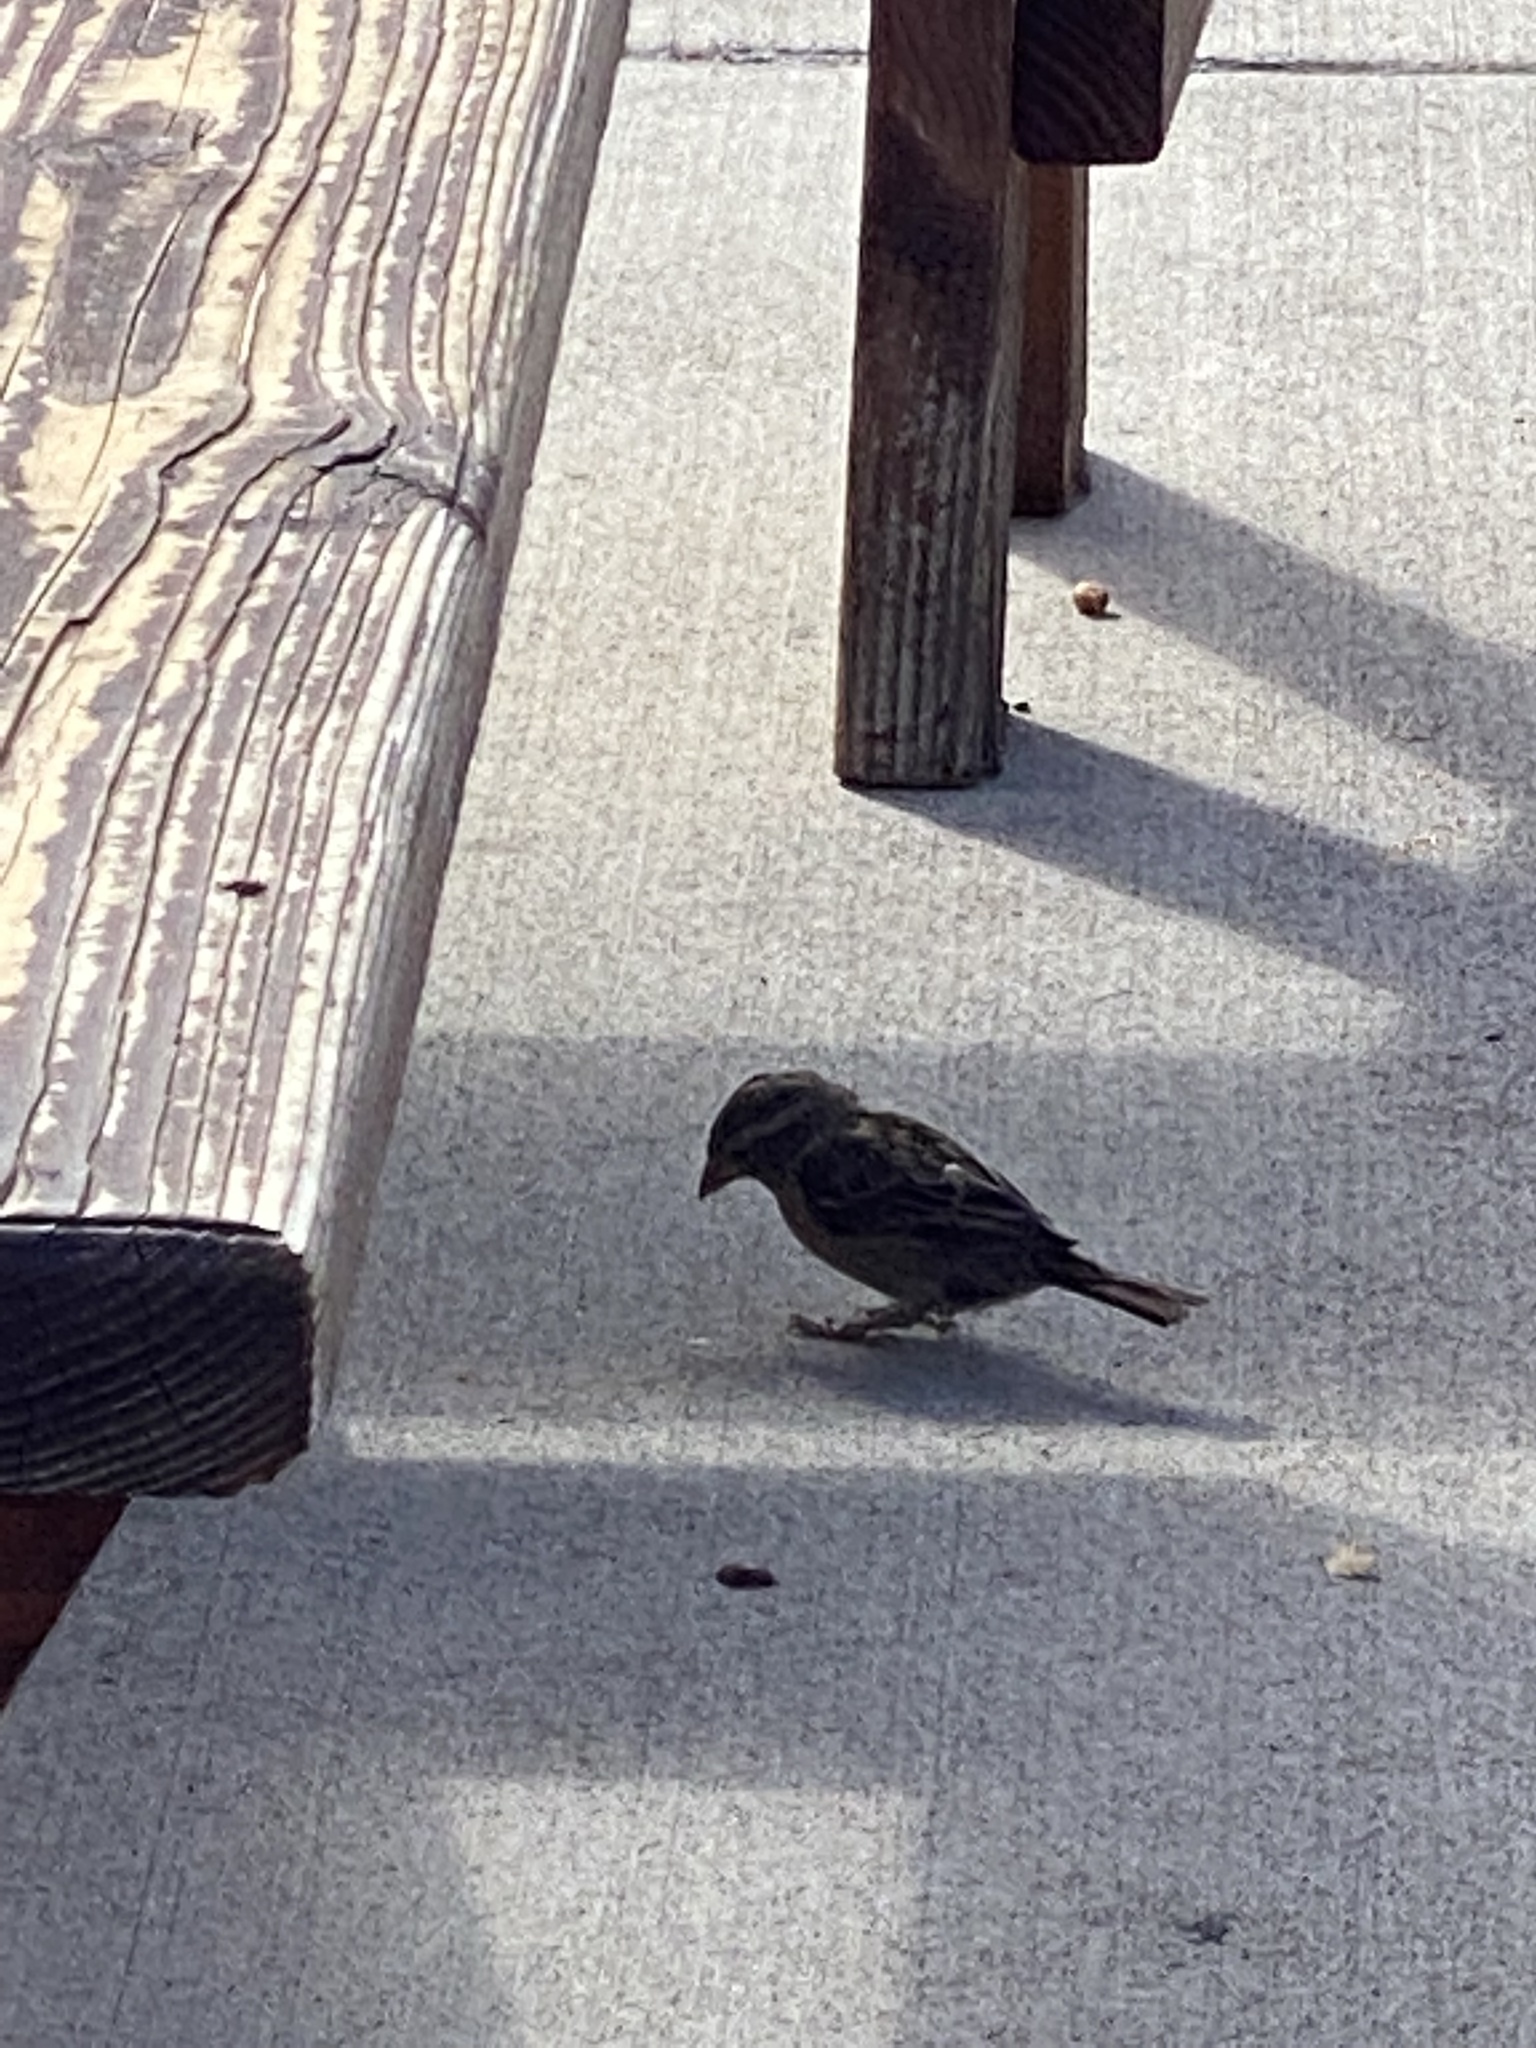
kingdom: Animalia
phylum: Chordata
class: Aves
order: Passeriformes
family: Passeridae
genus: Passer
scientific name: Passer domesticus
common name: House sparrow
